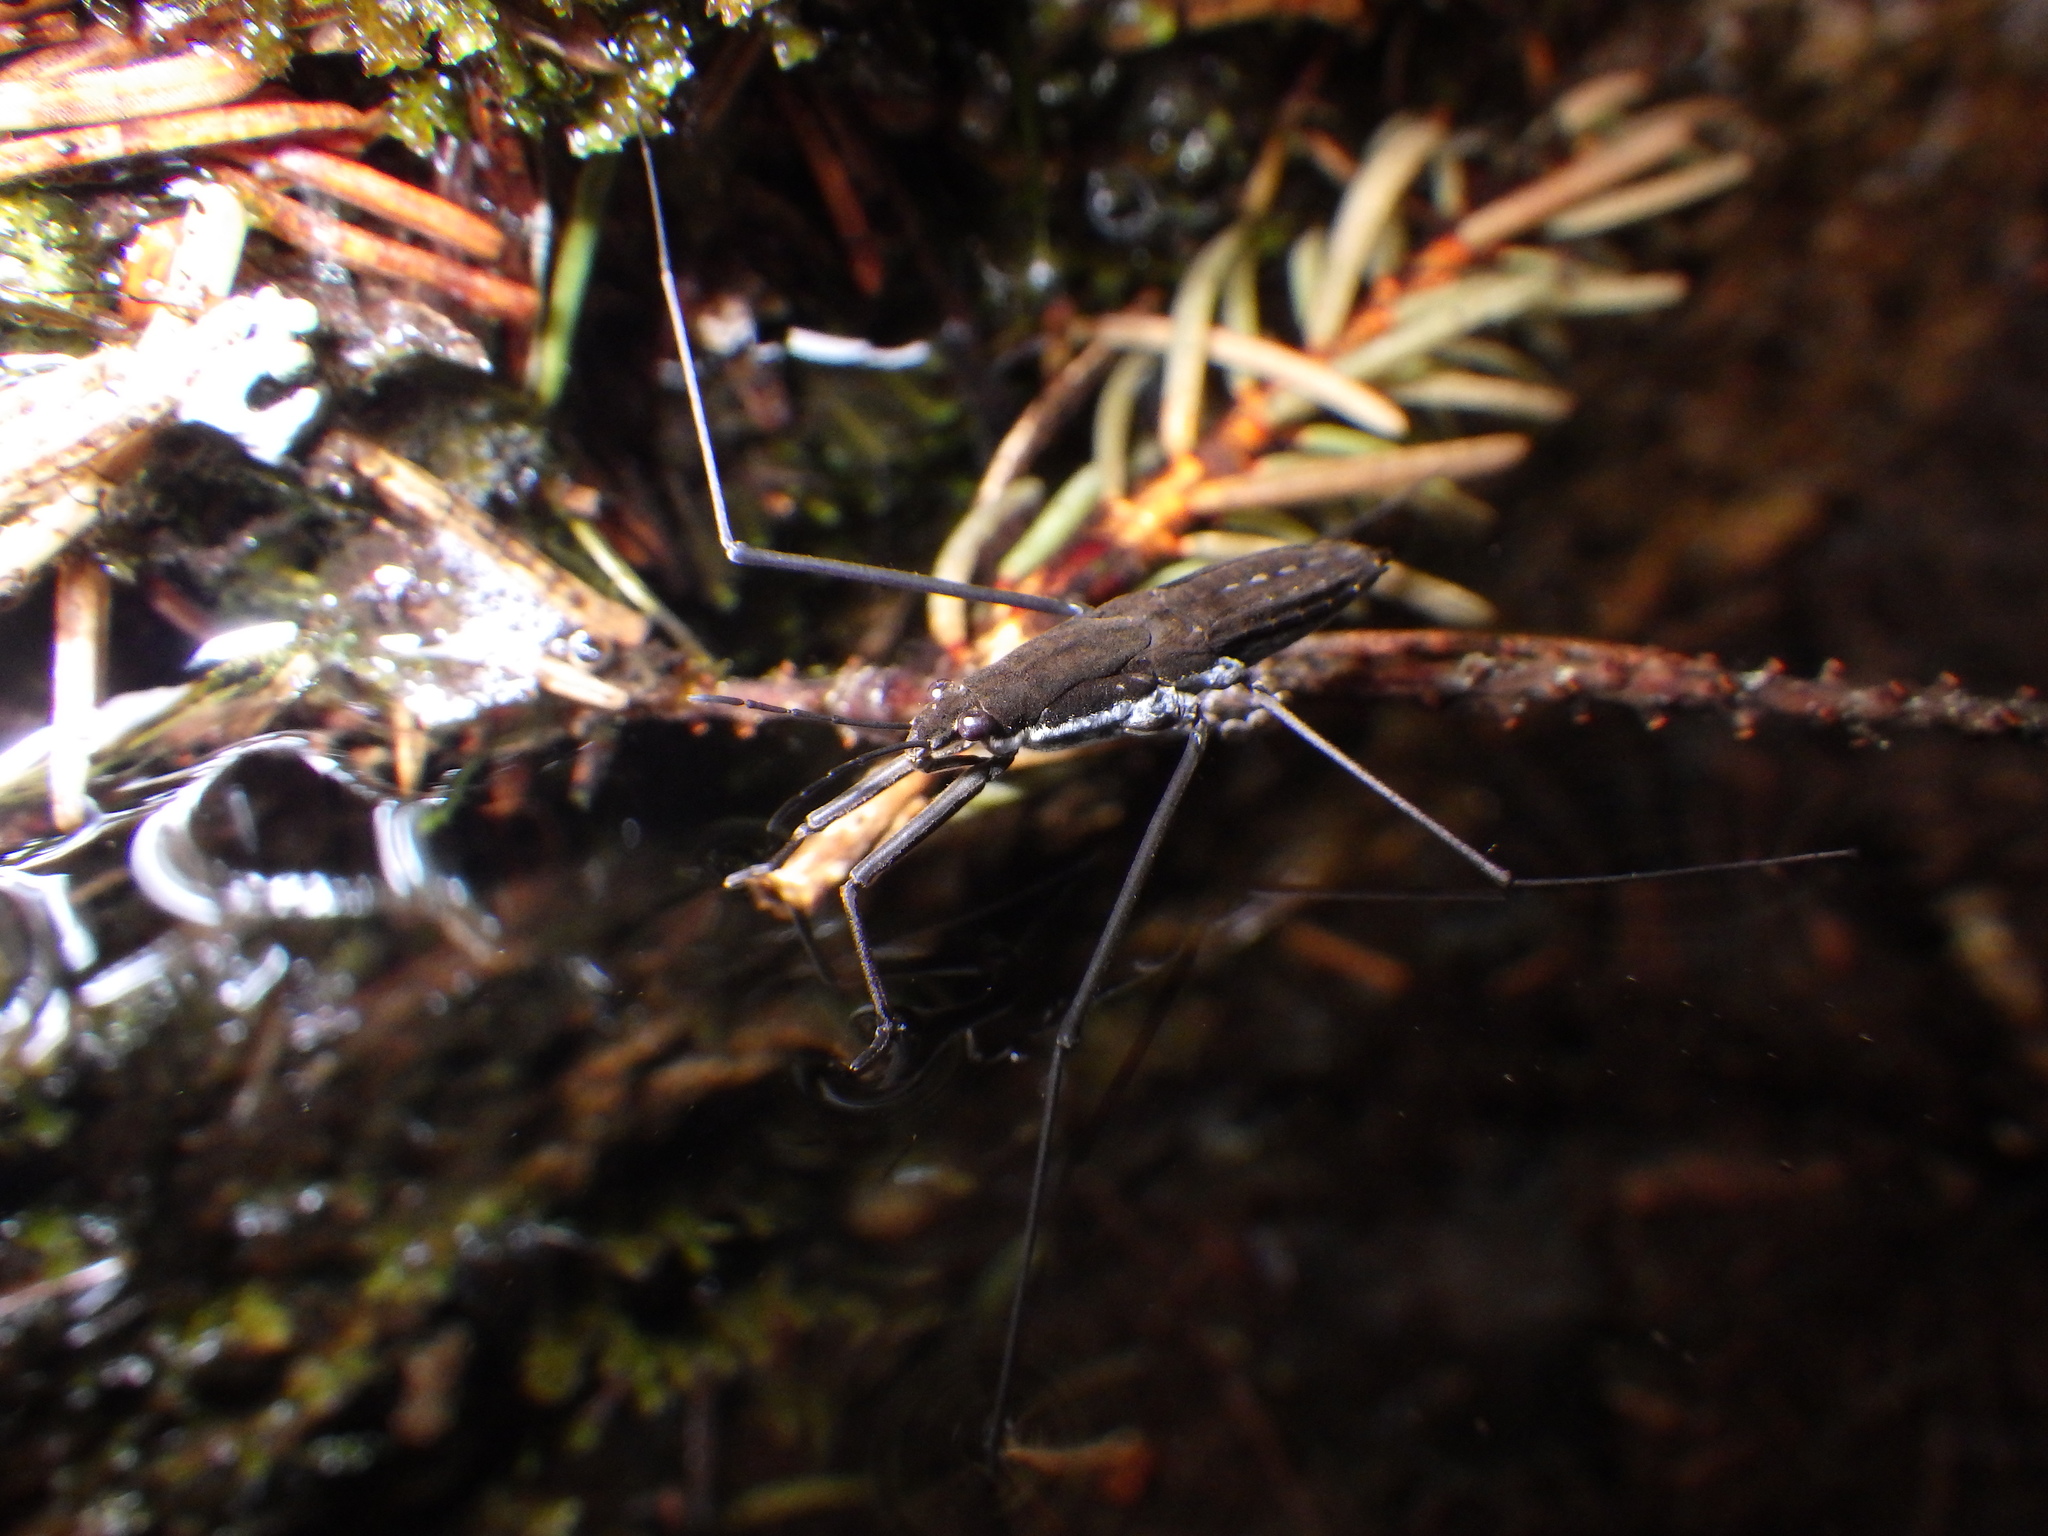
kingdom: Animalia
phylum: Arthropoda
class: Insecta
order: Hemiptera
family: Gerridae
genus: Aquarius
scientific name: Aquarius remigis
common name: Common water strider
